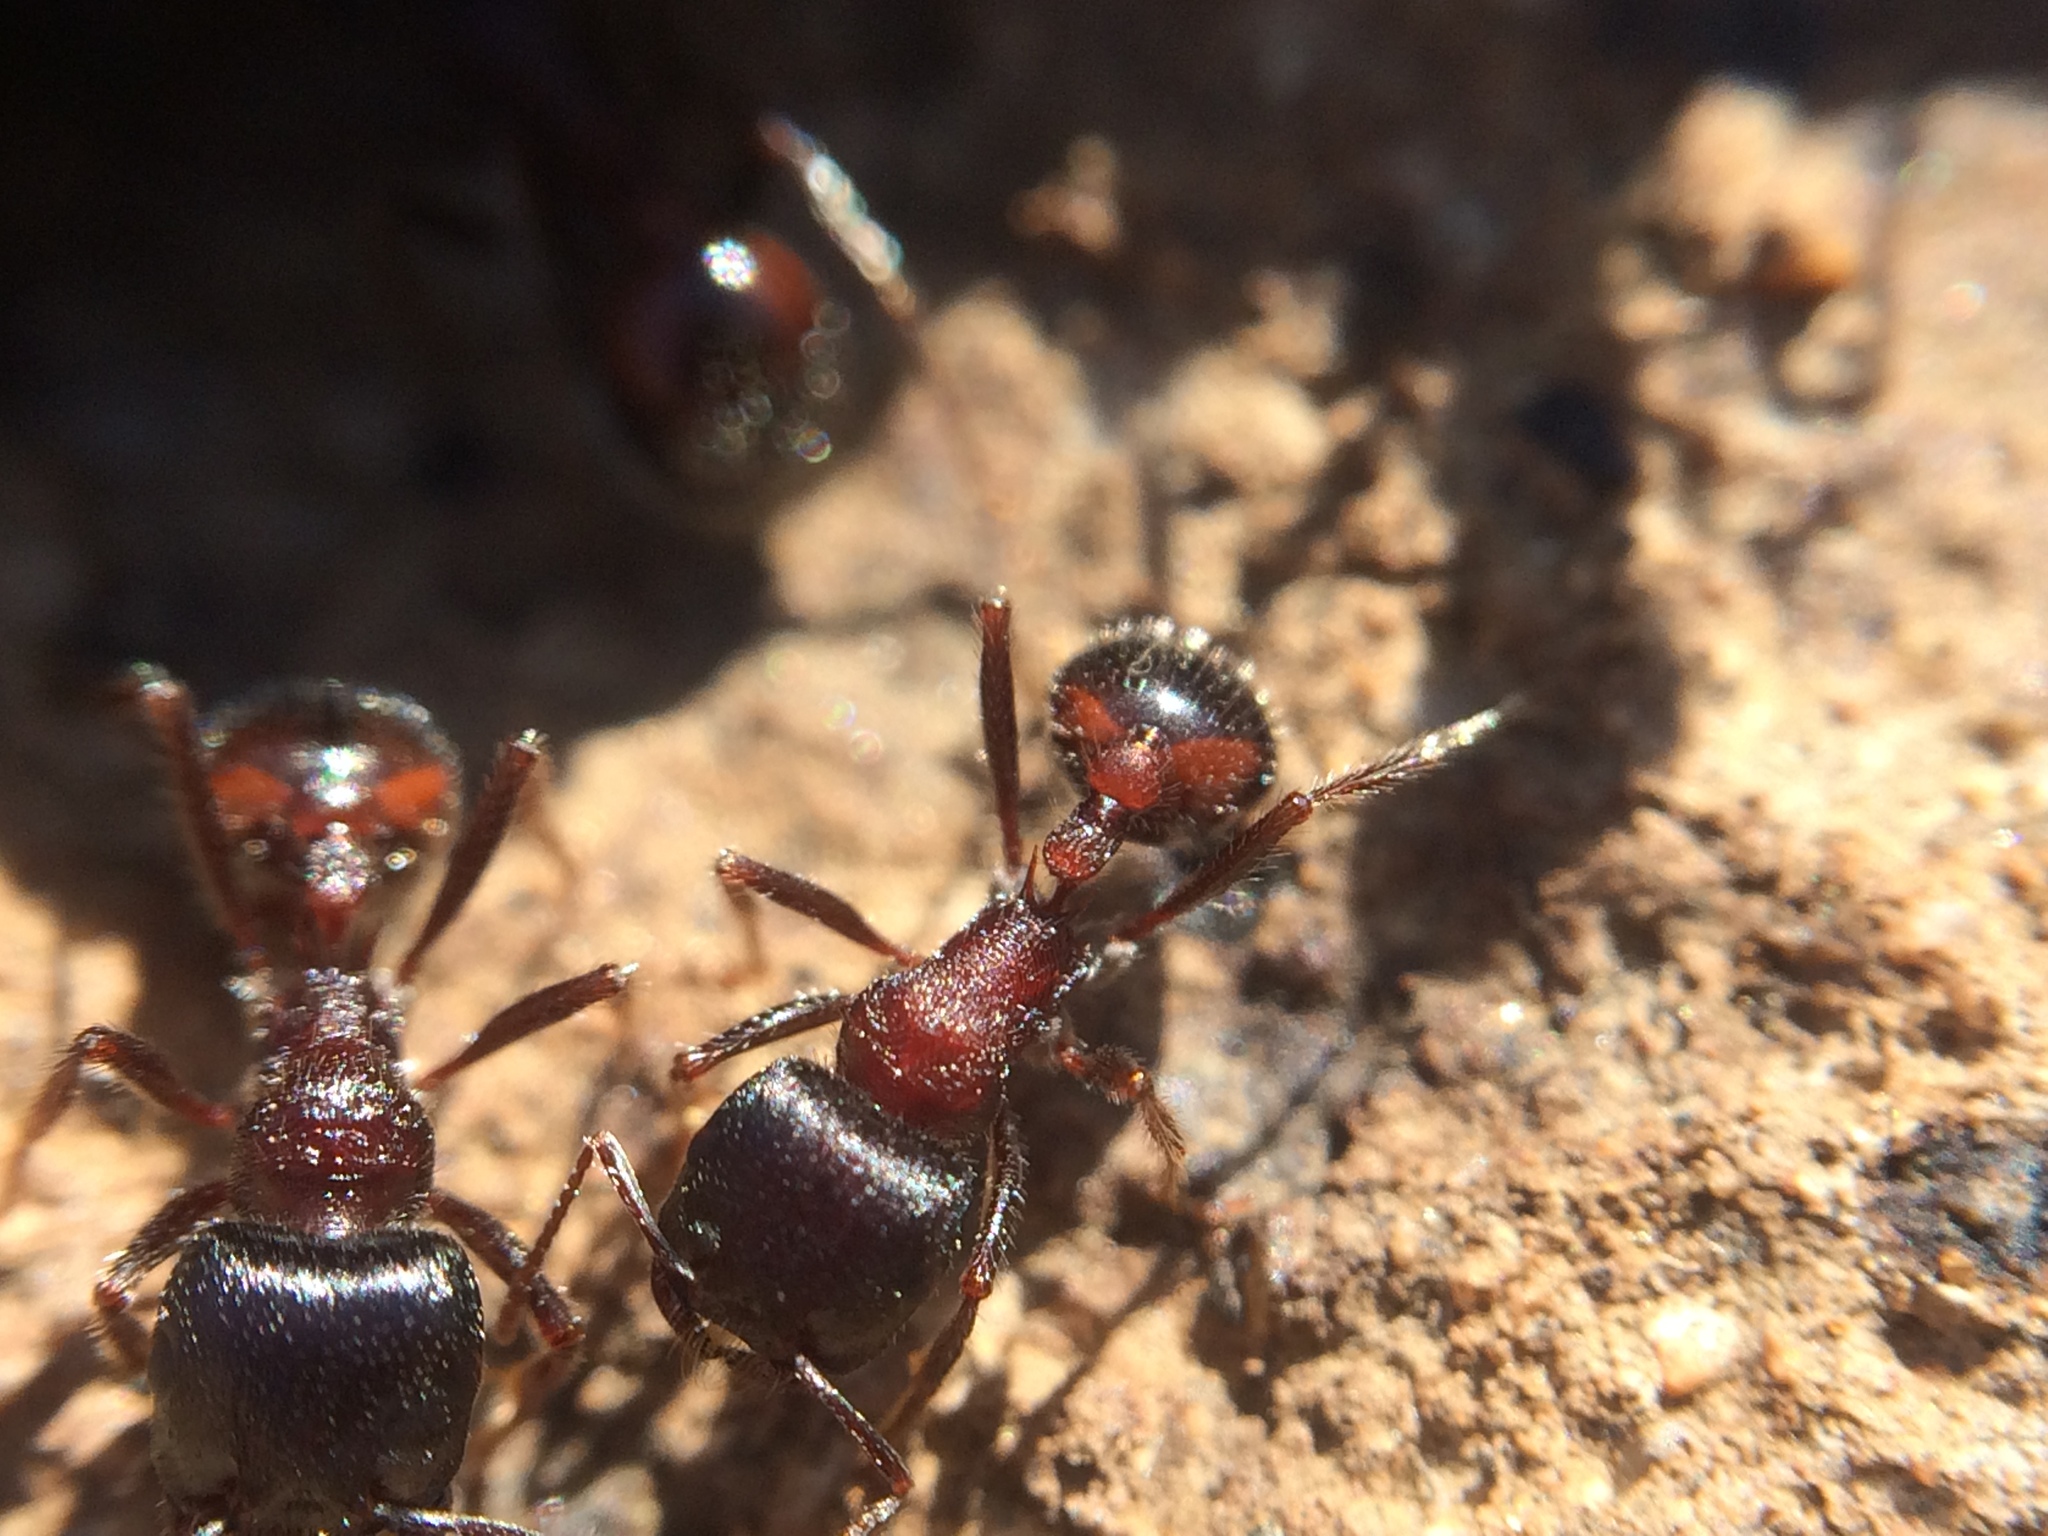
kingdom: Animalia
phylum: Arthropoda
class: Insecta
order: Hymenoptera
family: Formicidae
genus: Pogonomyrmex
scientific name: Pogonomyrmex rugosus
